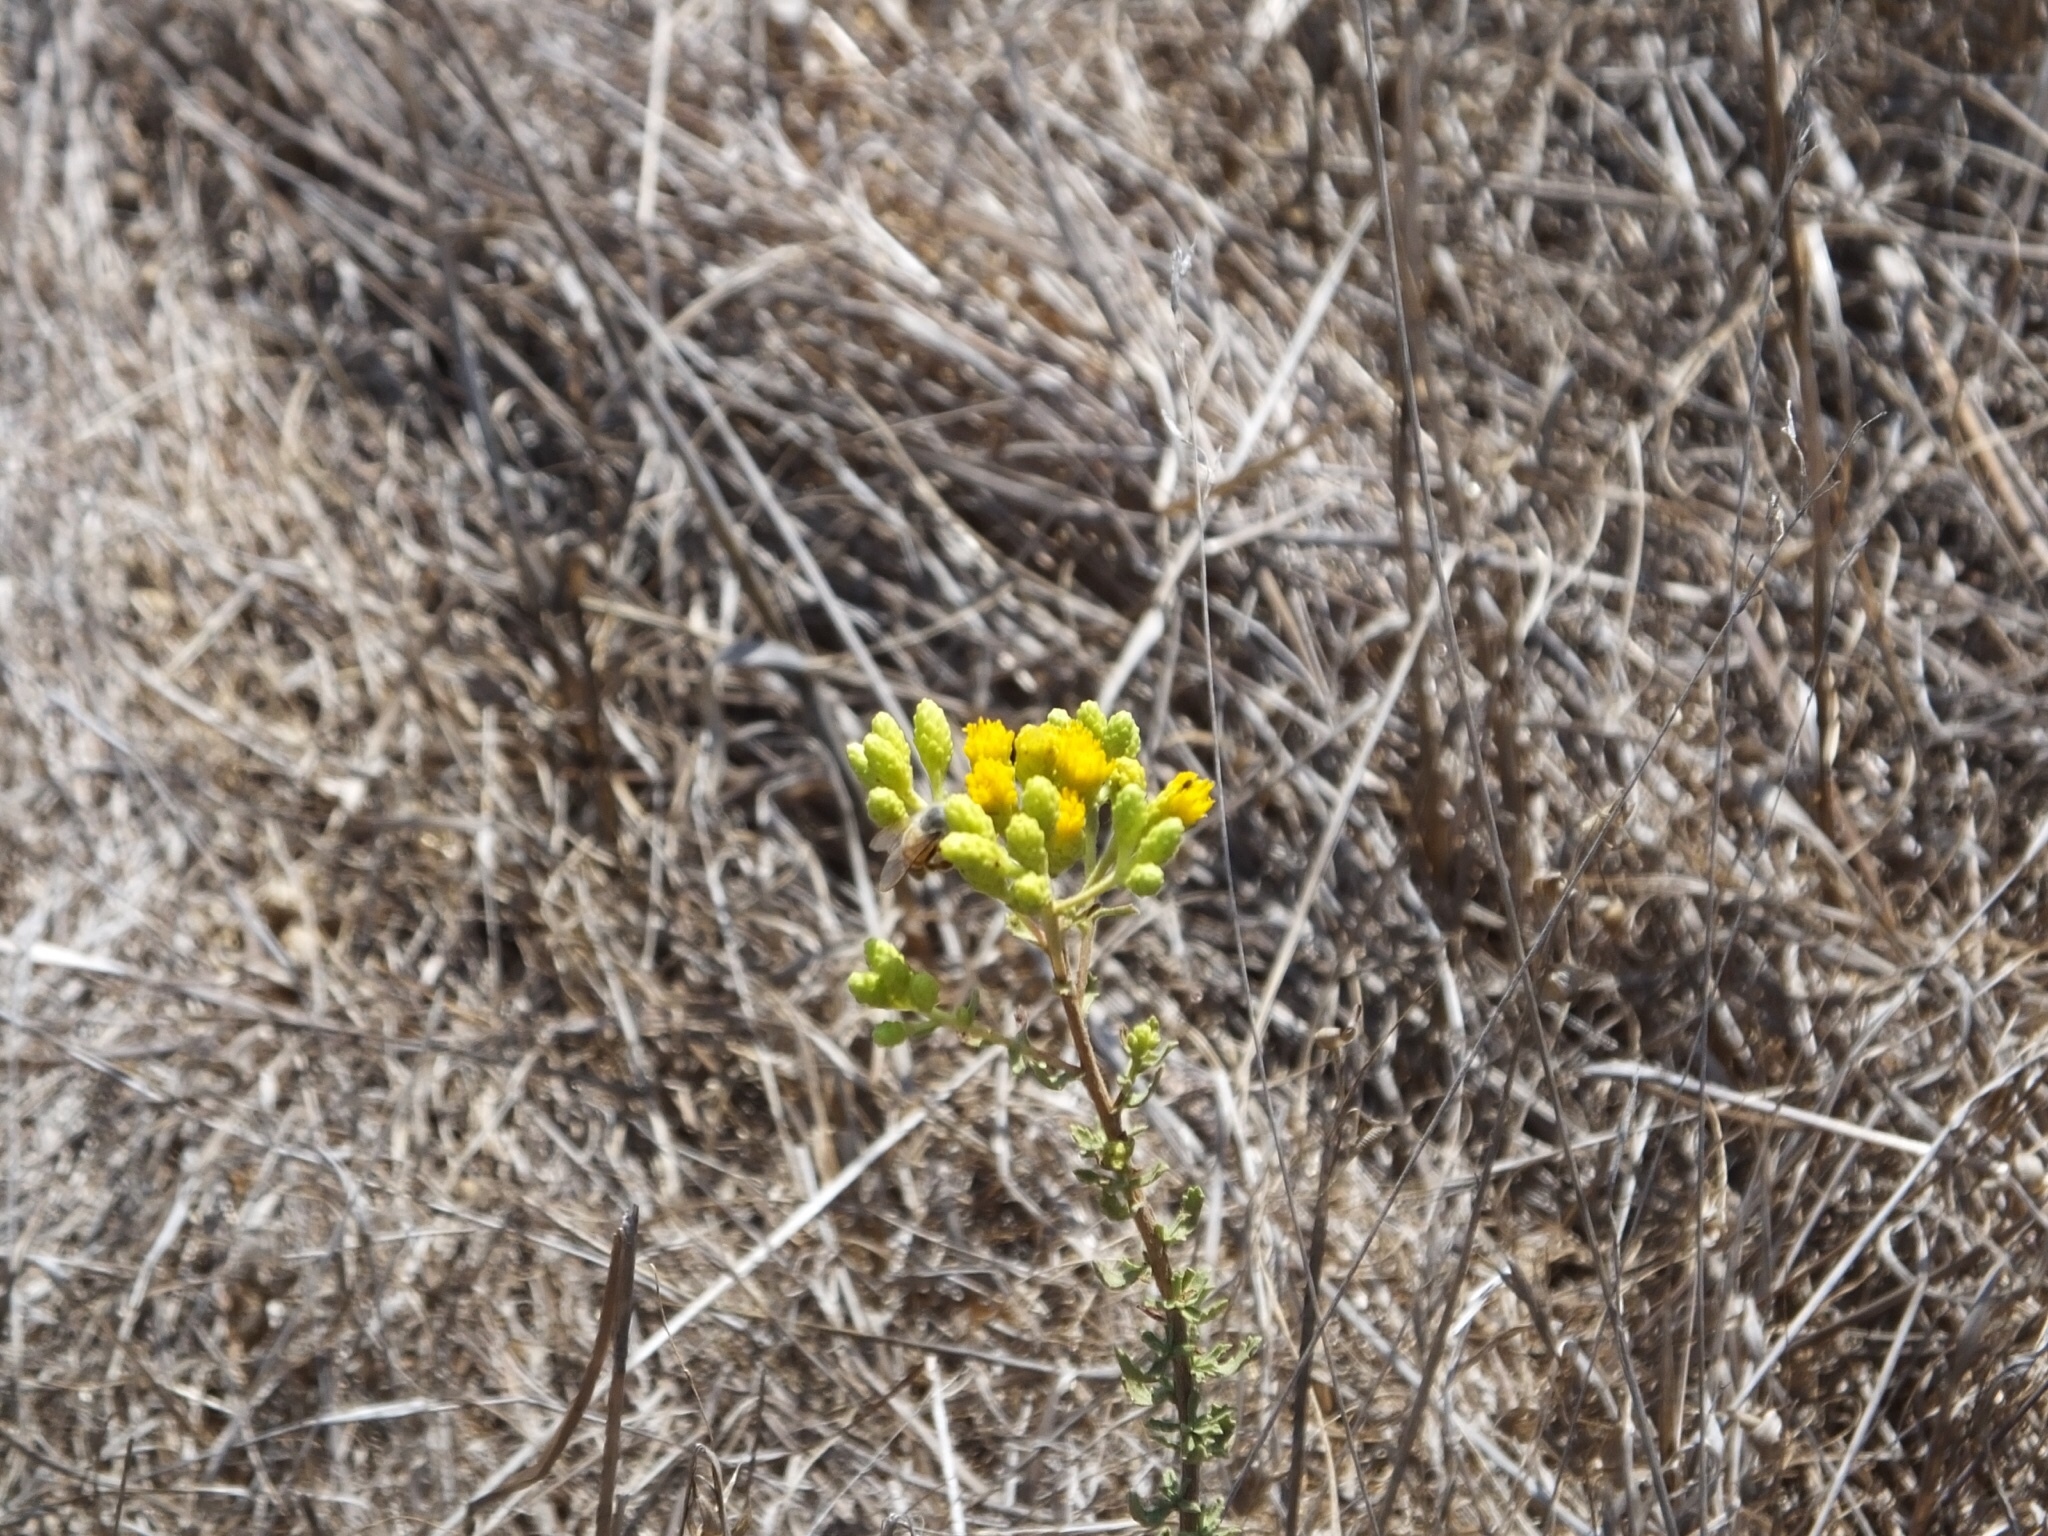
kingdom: Plantae
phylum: Tracheophyta
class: Magnoliopsida
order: Asterales
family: Asteraceae
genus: Isocoma
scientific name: Isocoma menziesii
